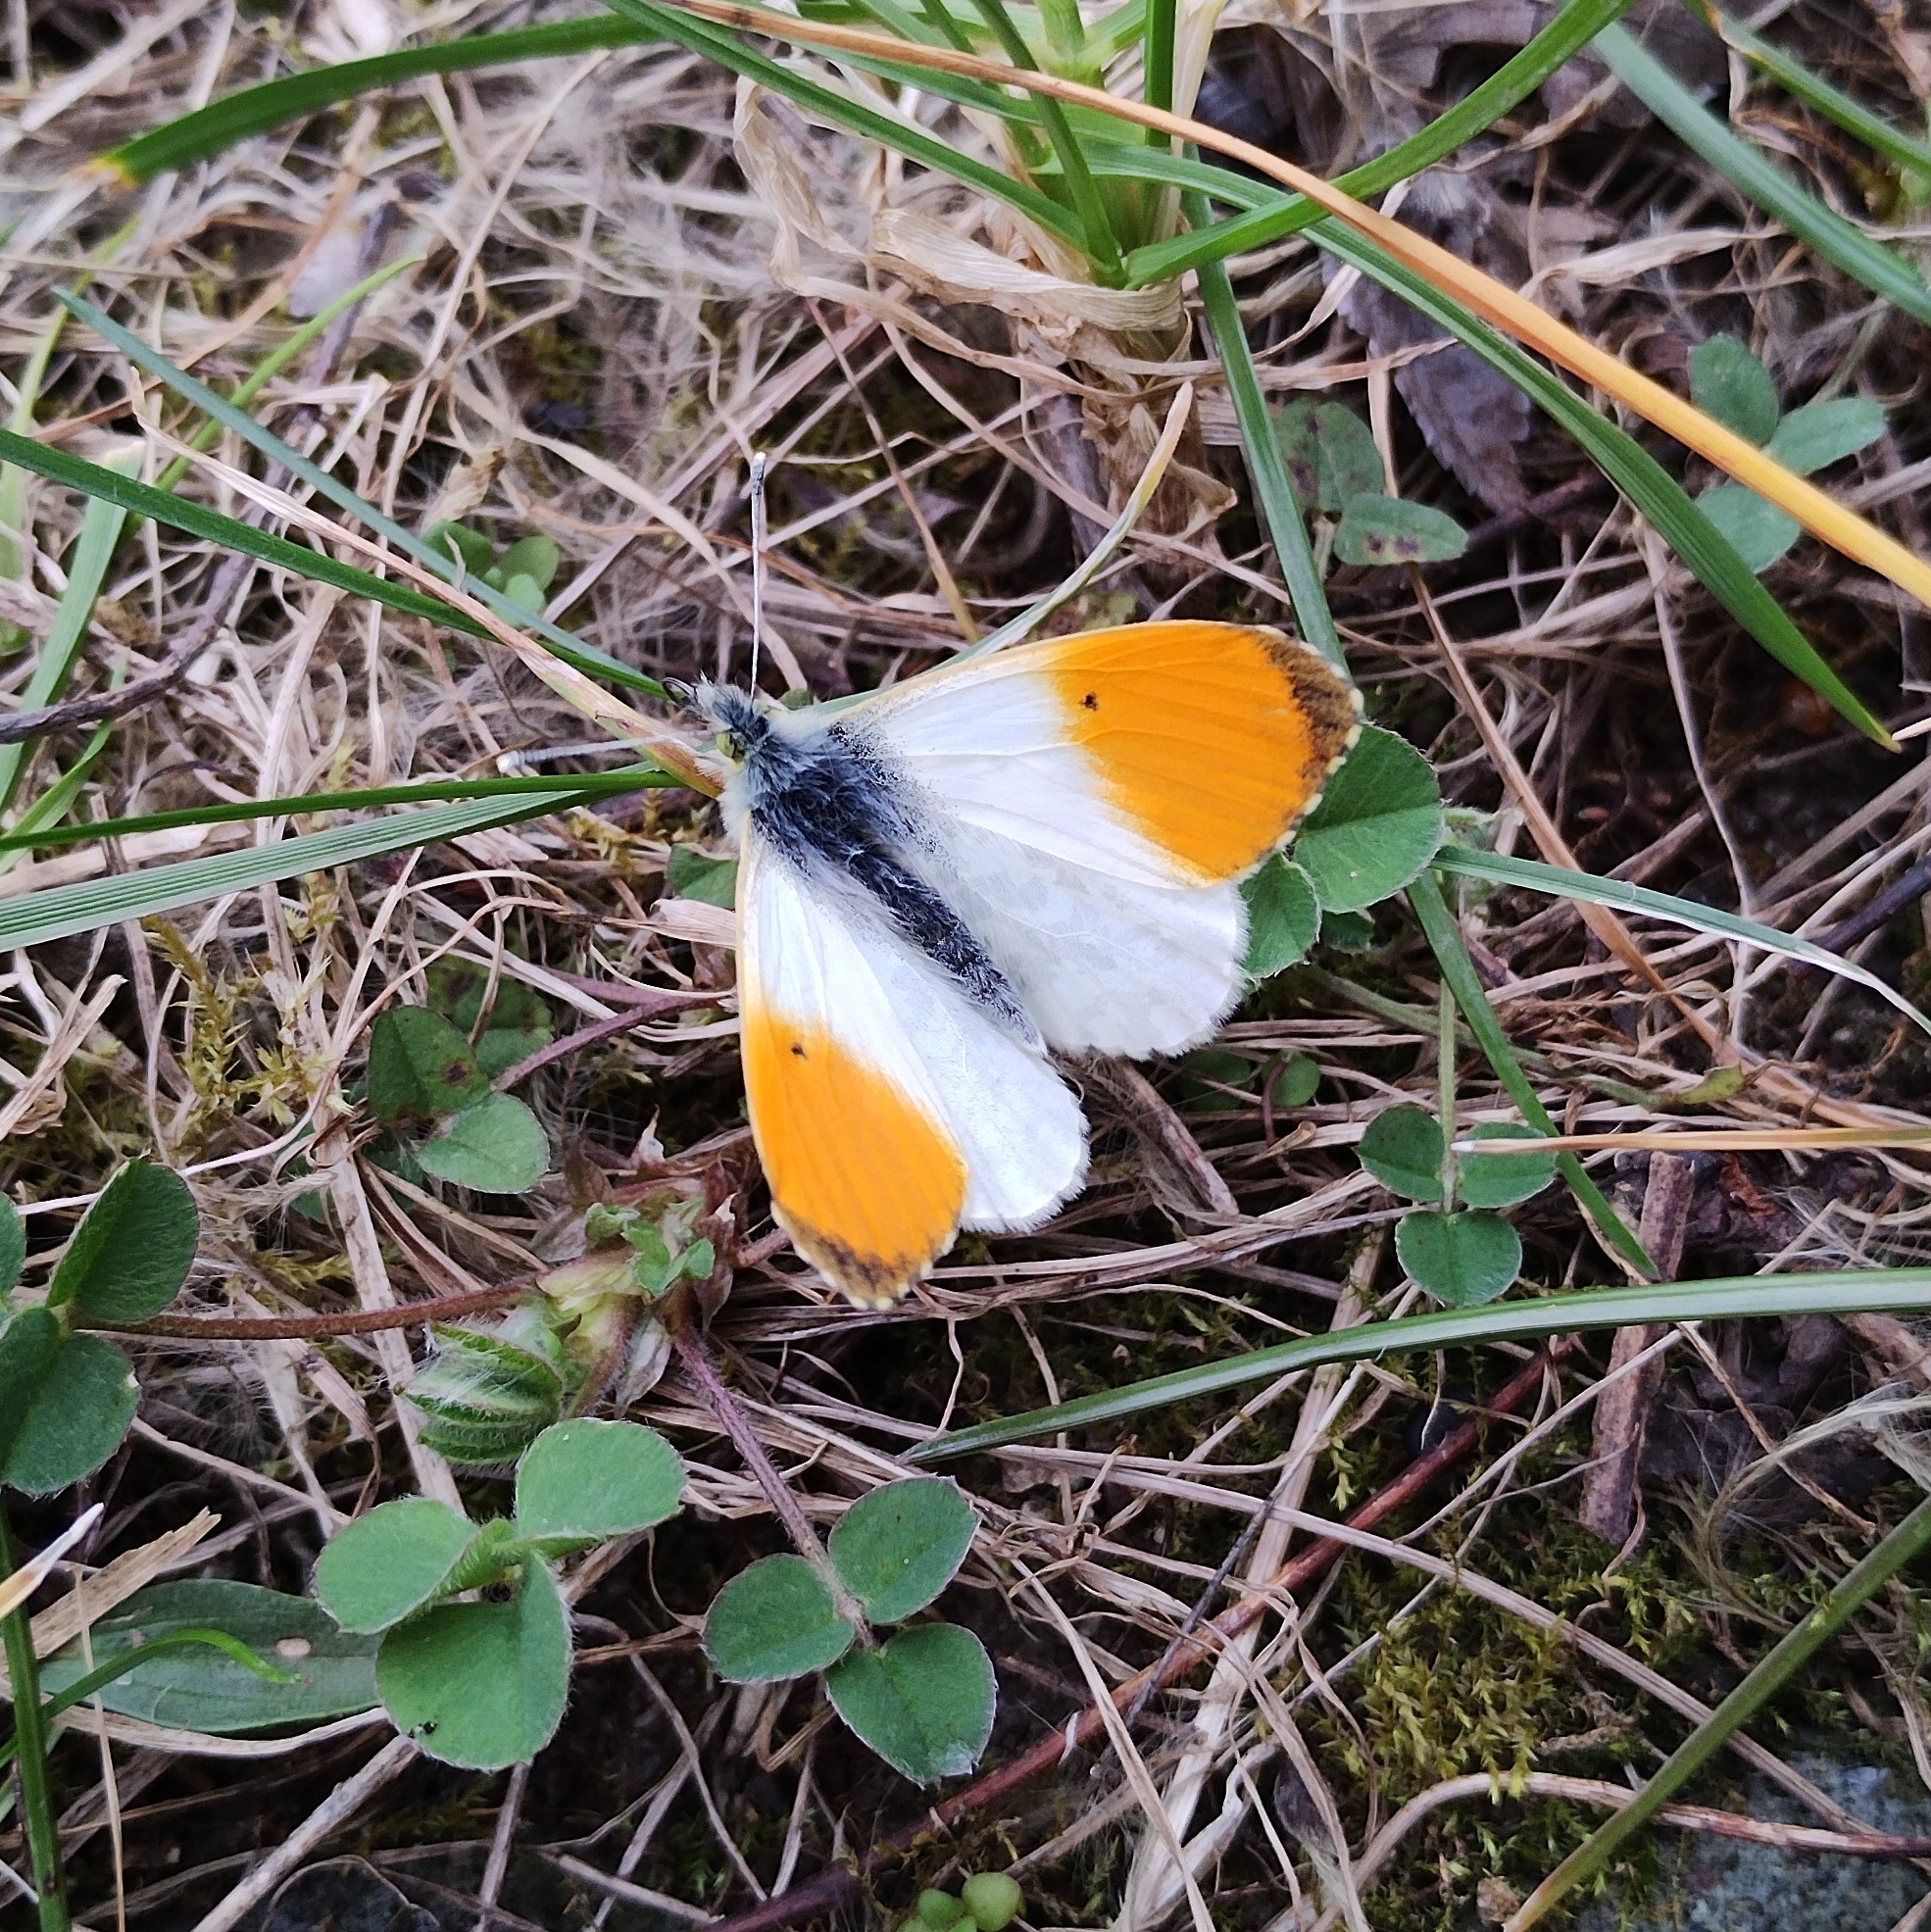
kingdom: Animalia
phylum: Arthropoda
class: Insecta
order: Lepidoptera
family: Pieridae
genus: Anthocharis
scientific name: Anthocharis cardamines
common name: Orange-tip
